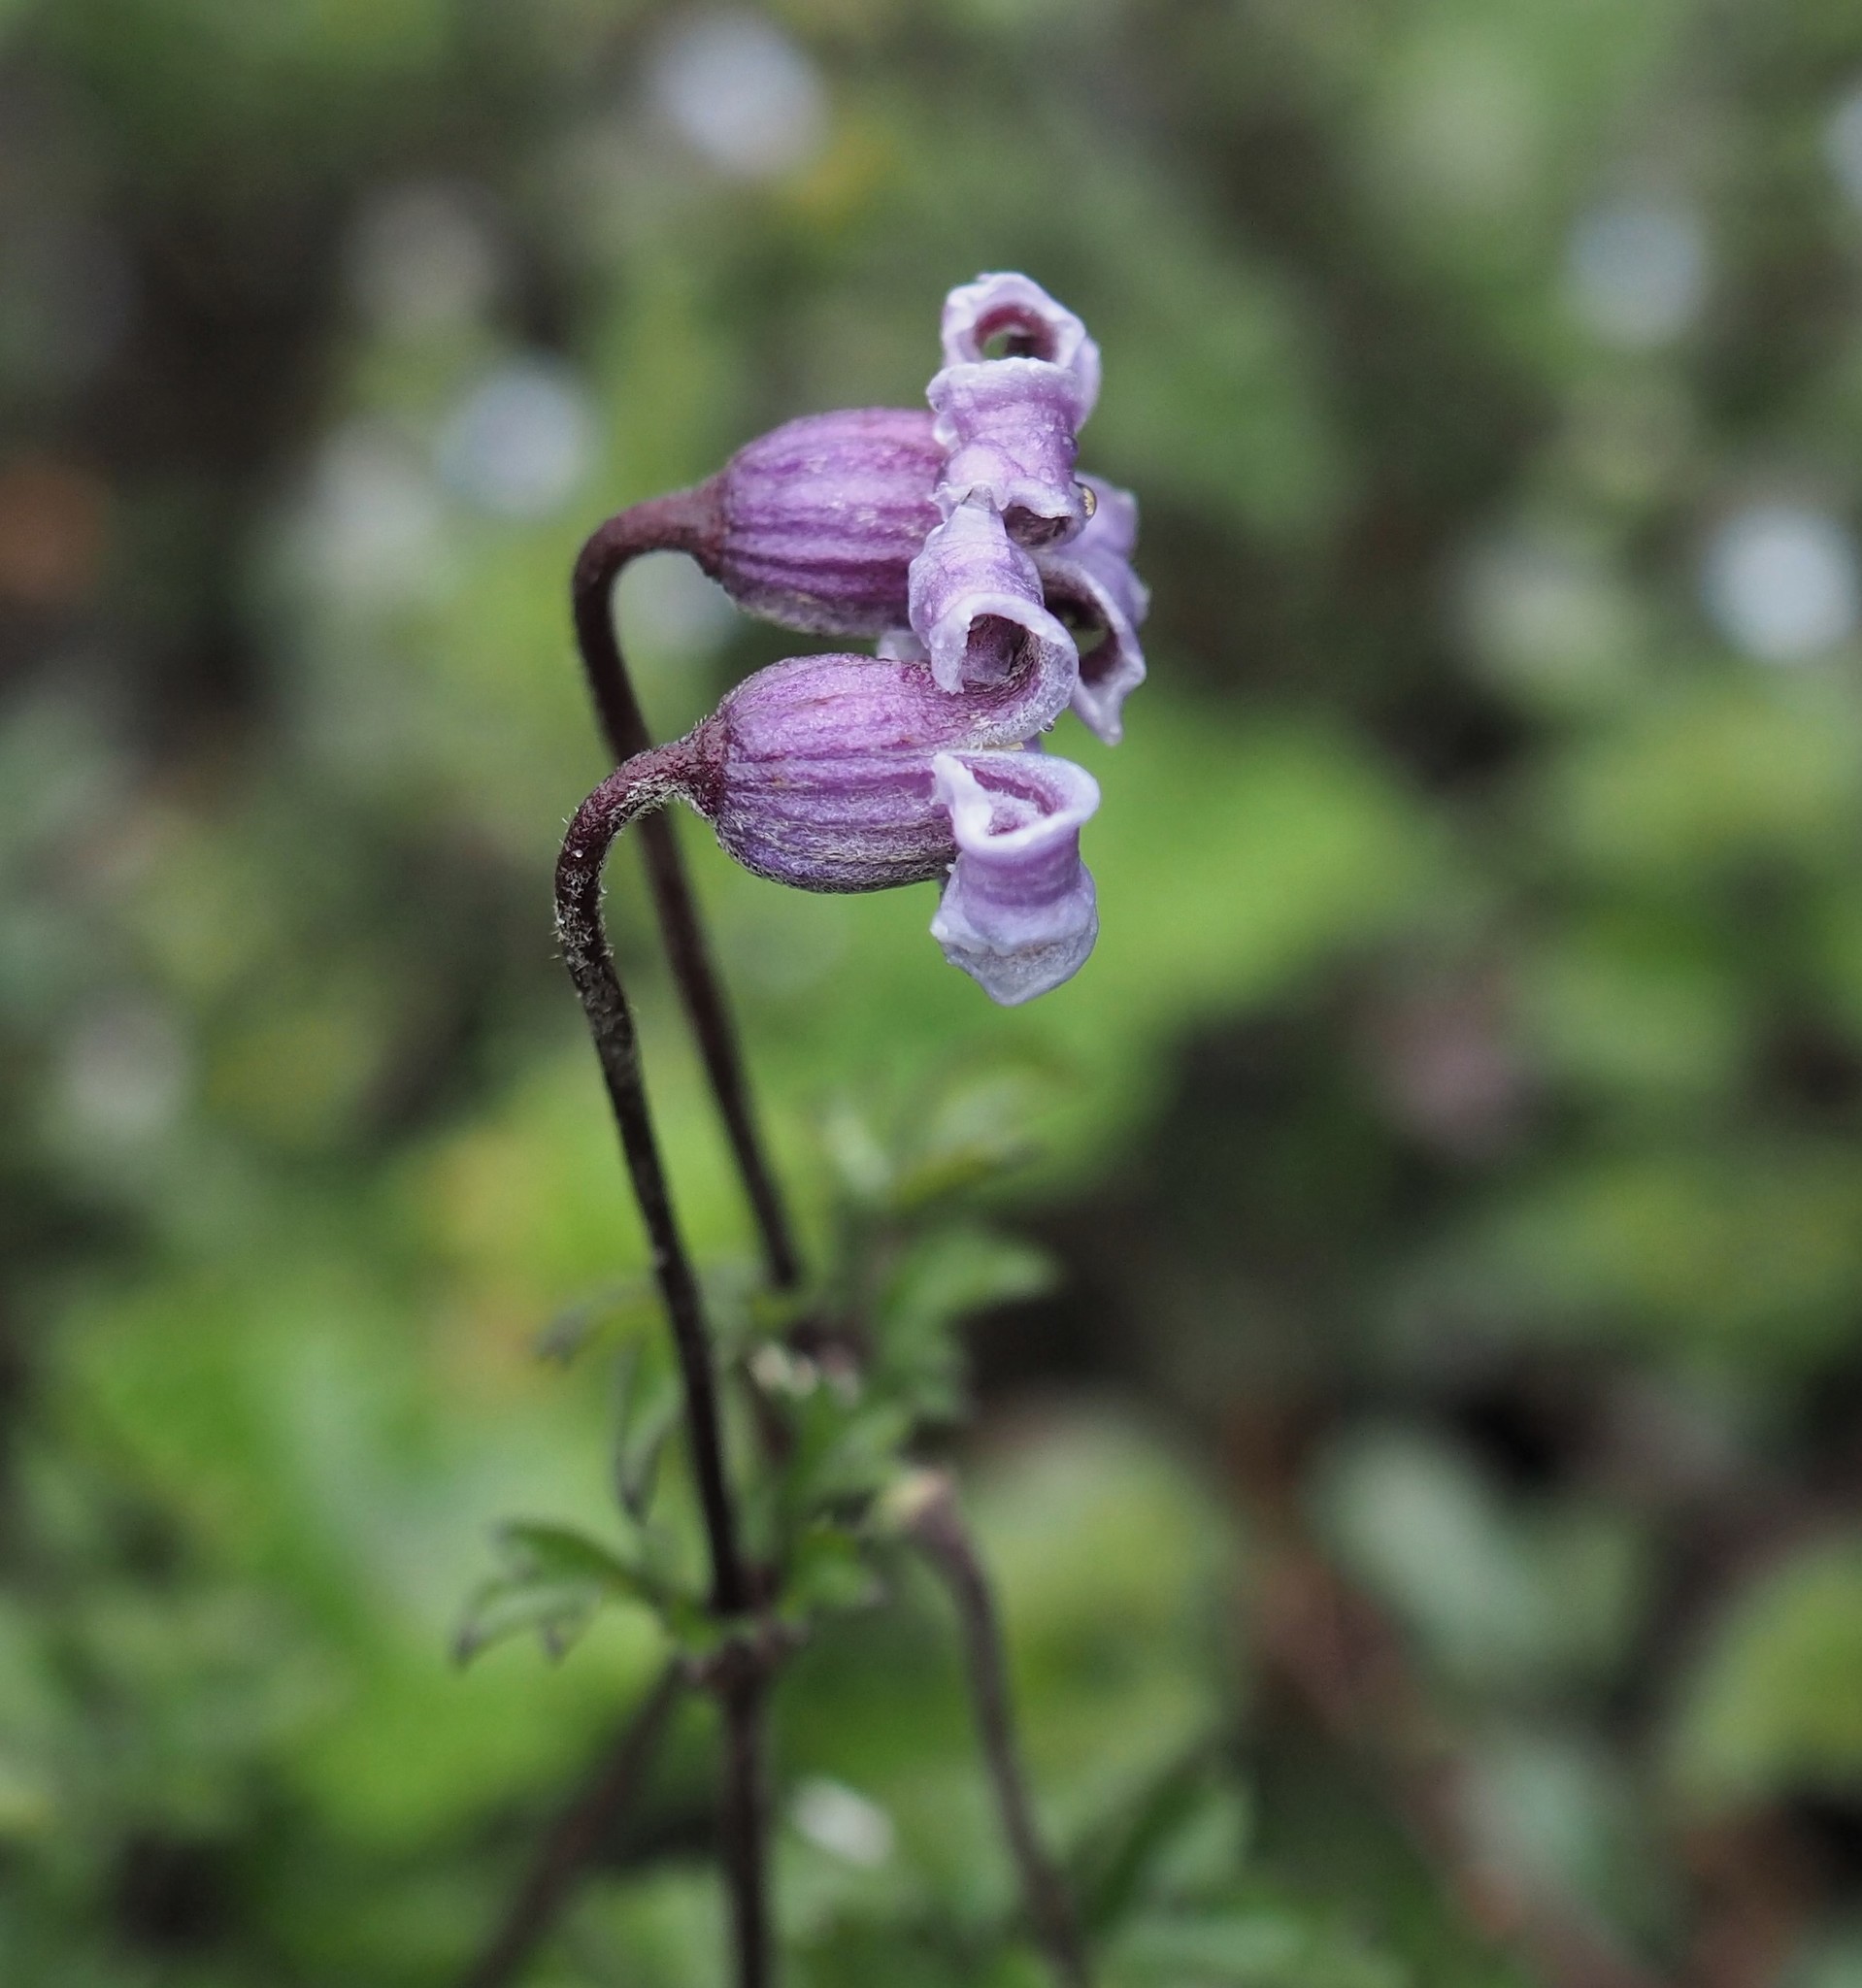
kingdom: Plantae
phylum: Tracheophyta
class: Magnoliopsida
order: Ranunculales
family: Ranunculaceae
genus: Clematis
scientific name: Clematis tsugetorum
